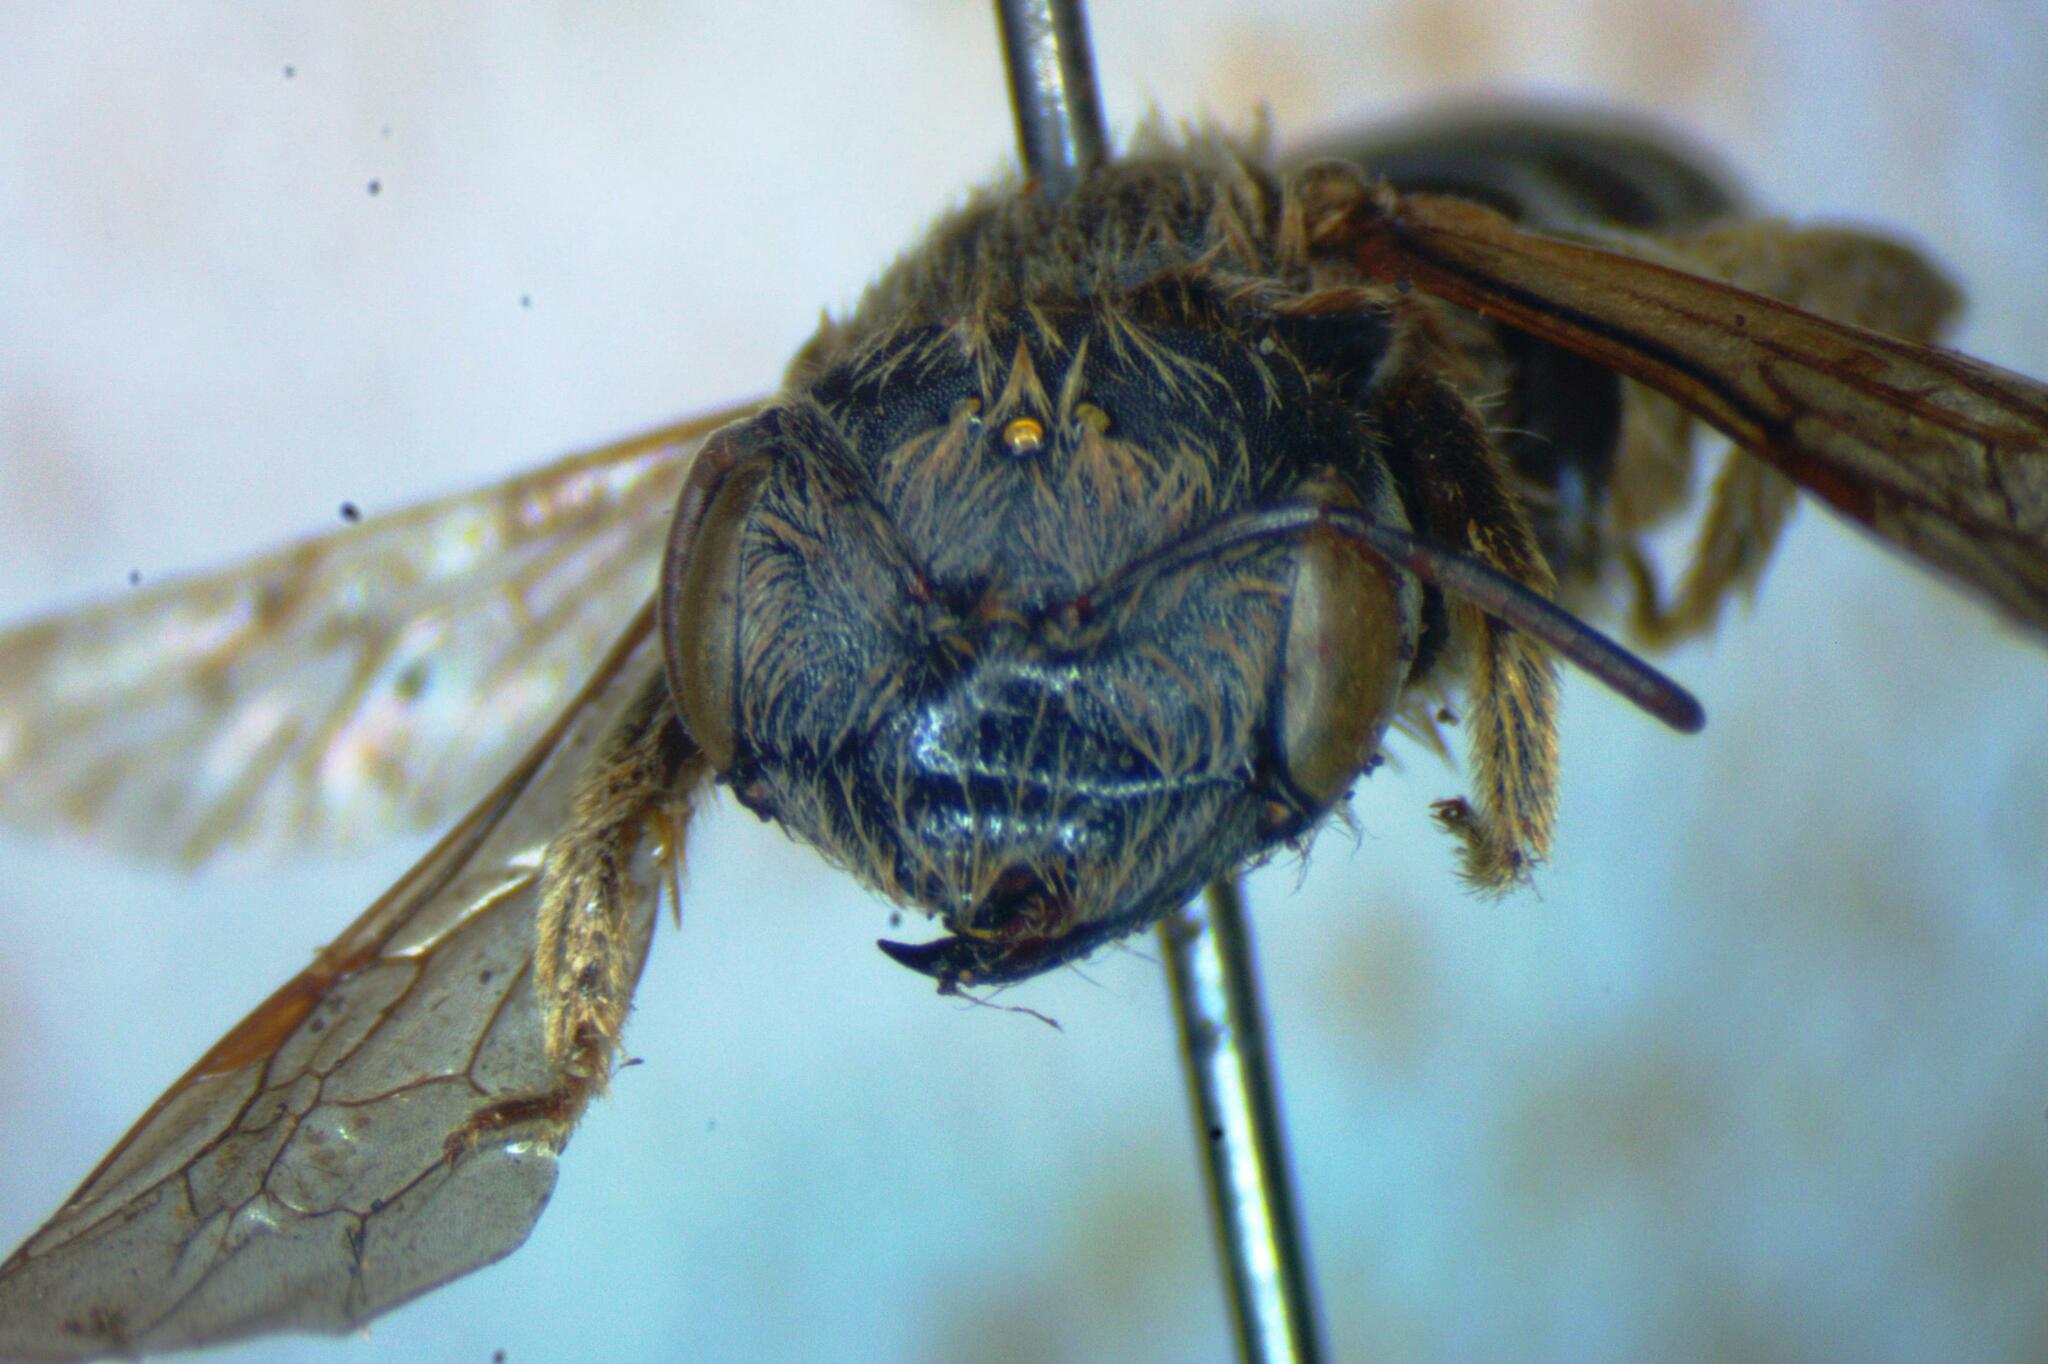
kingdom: Animalia
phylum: Arthropoda
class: Insecta
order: Hymenoptera
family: Halictidae
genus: Halictus
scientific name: Halictus ligatus
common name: Ligated furrow bee
